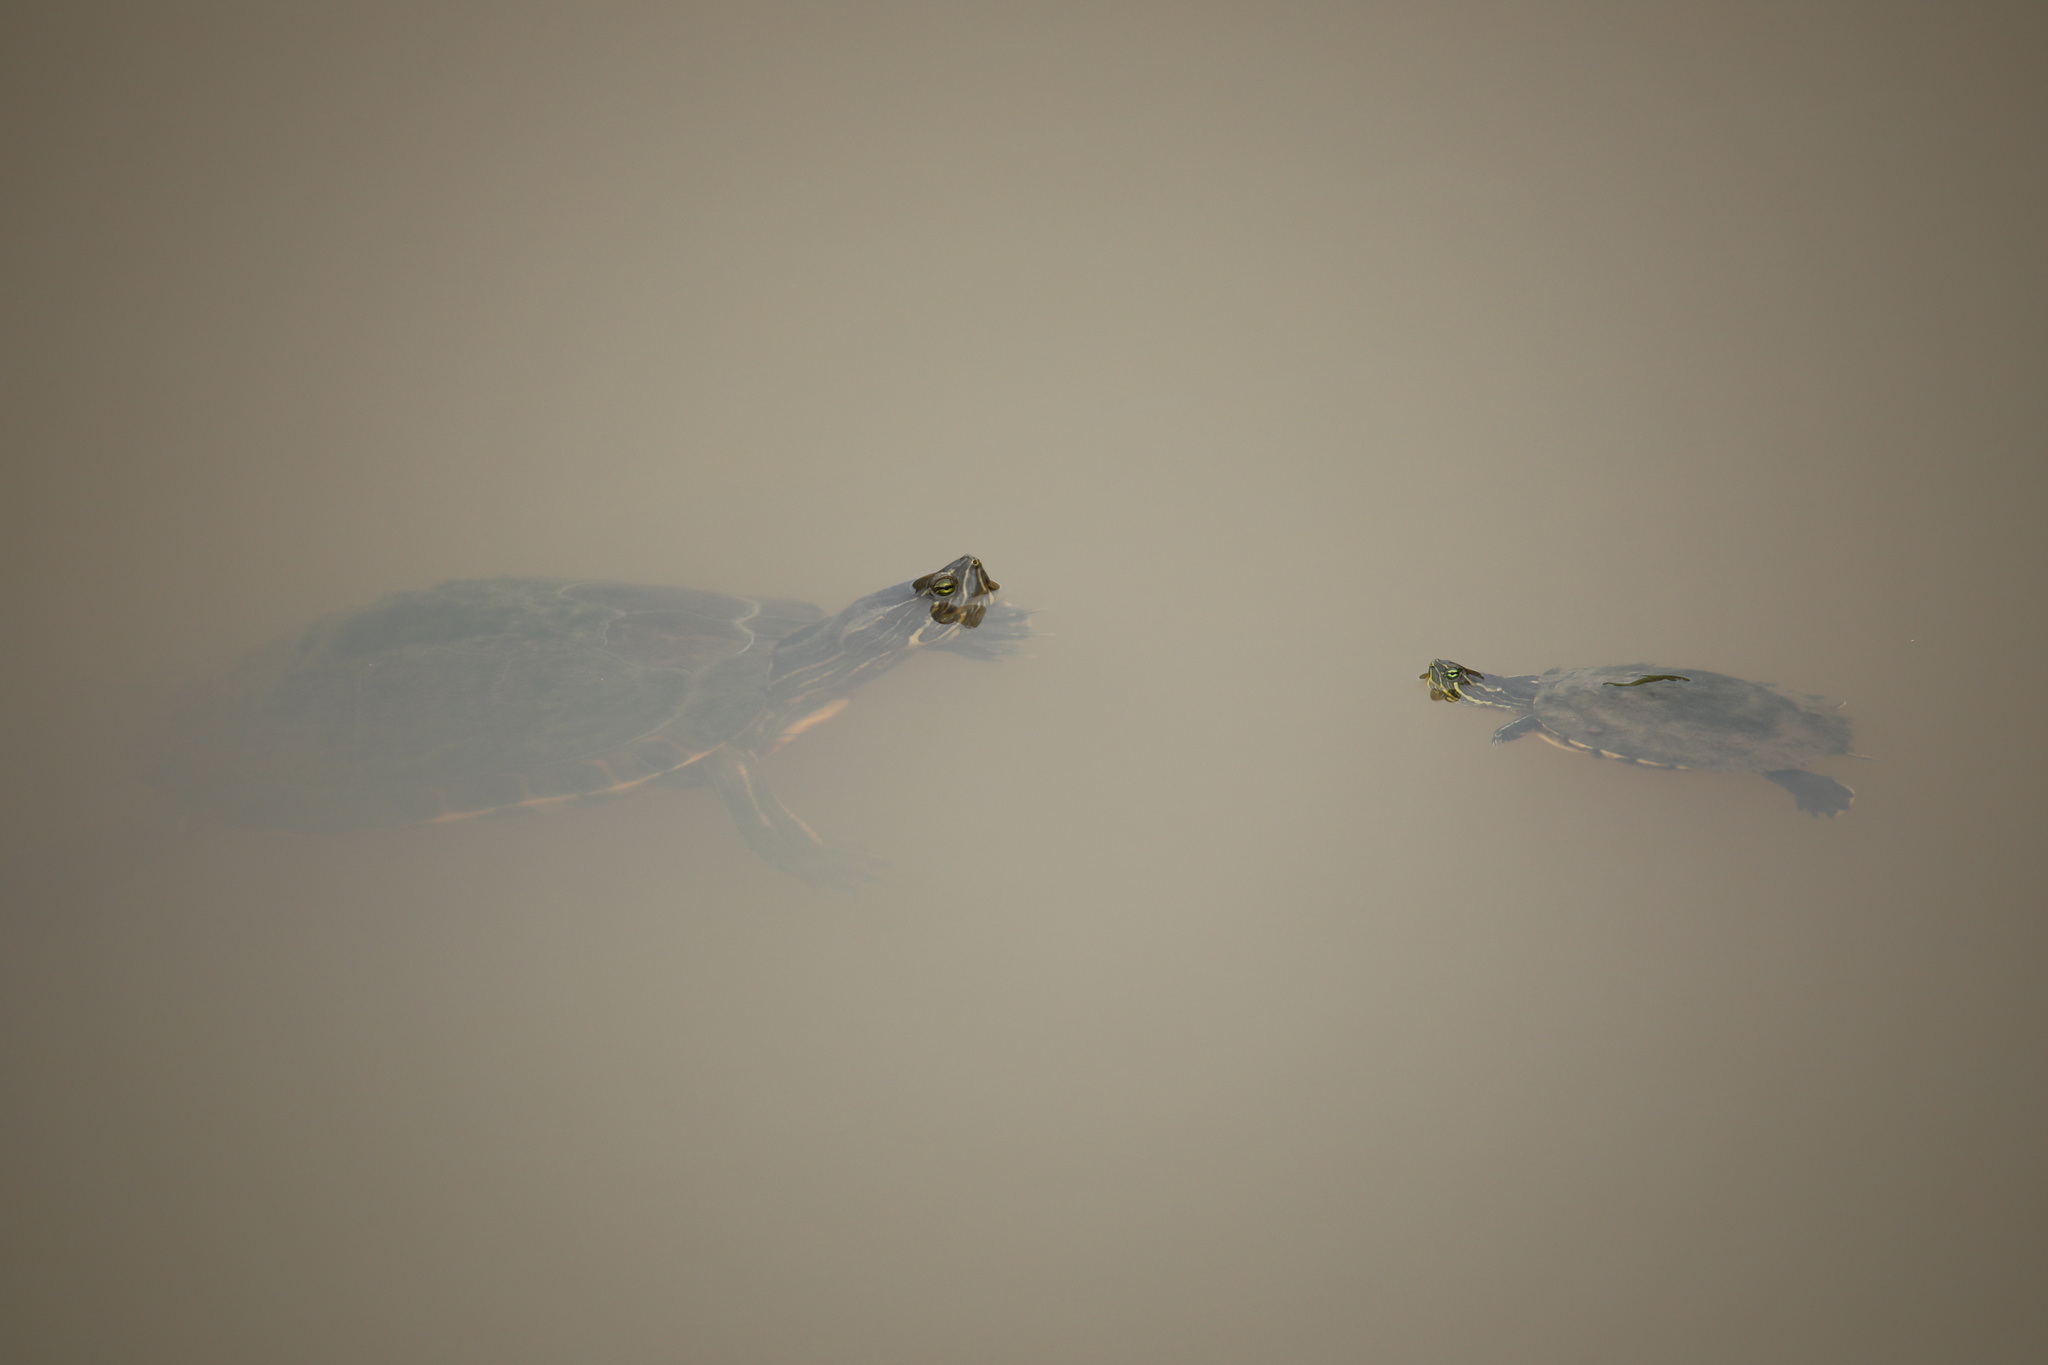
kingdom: Animalia
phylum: Chordata
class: Testudines
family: Emydidae
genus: Trachemys
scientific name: Trachemys scripta
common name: Slider
